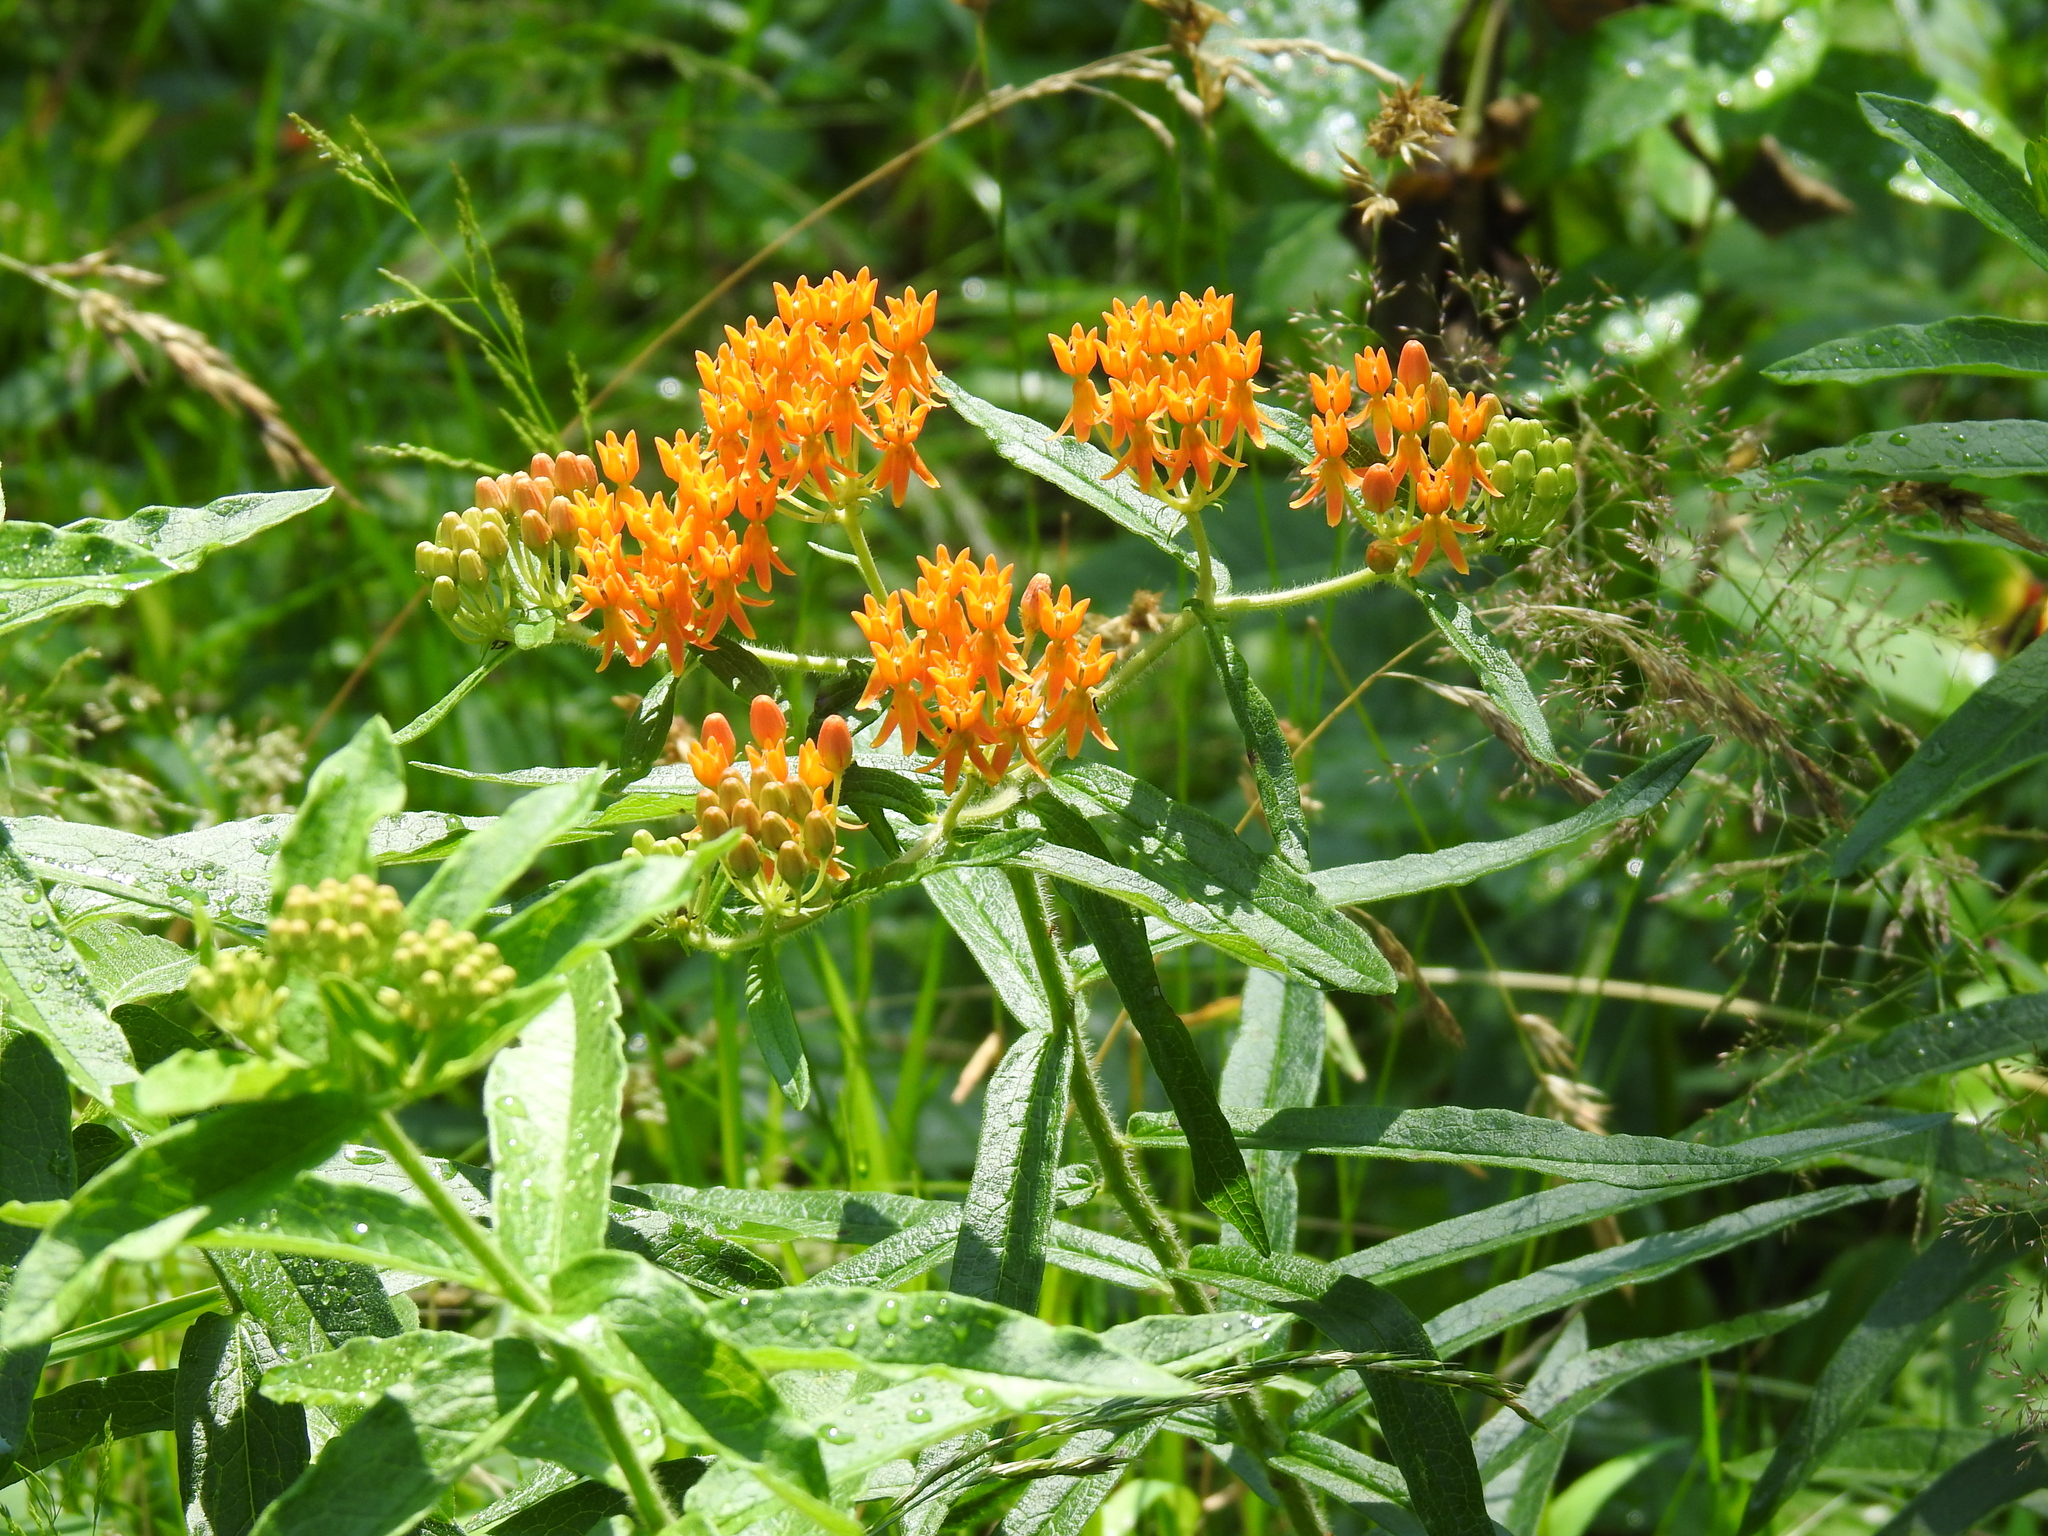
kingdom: Plantae
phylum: Tracheophyta
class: Magnoliopsida
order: Gentianales
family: Apocynaceae
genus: Asclepias
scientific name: Asclepias tuberosa
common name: Butterfly milkweed
